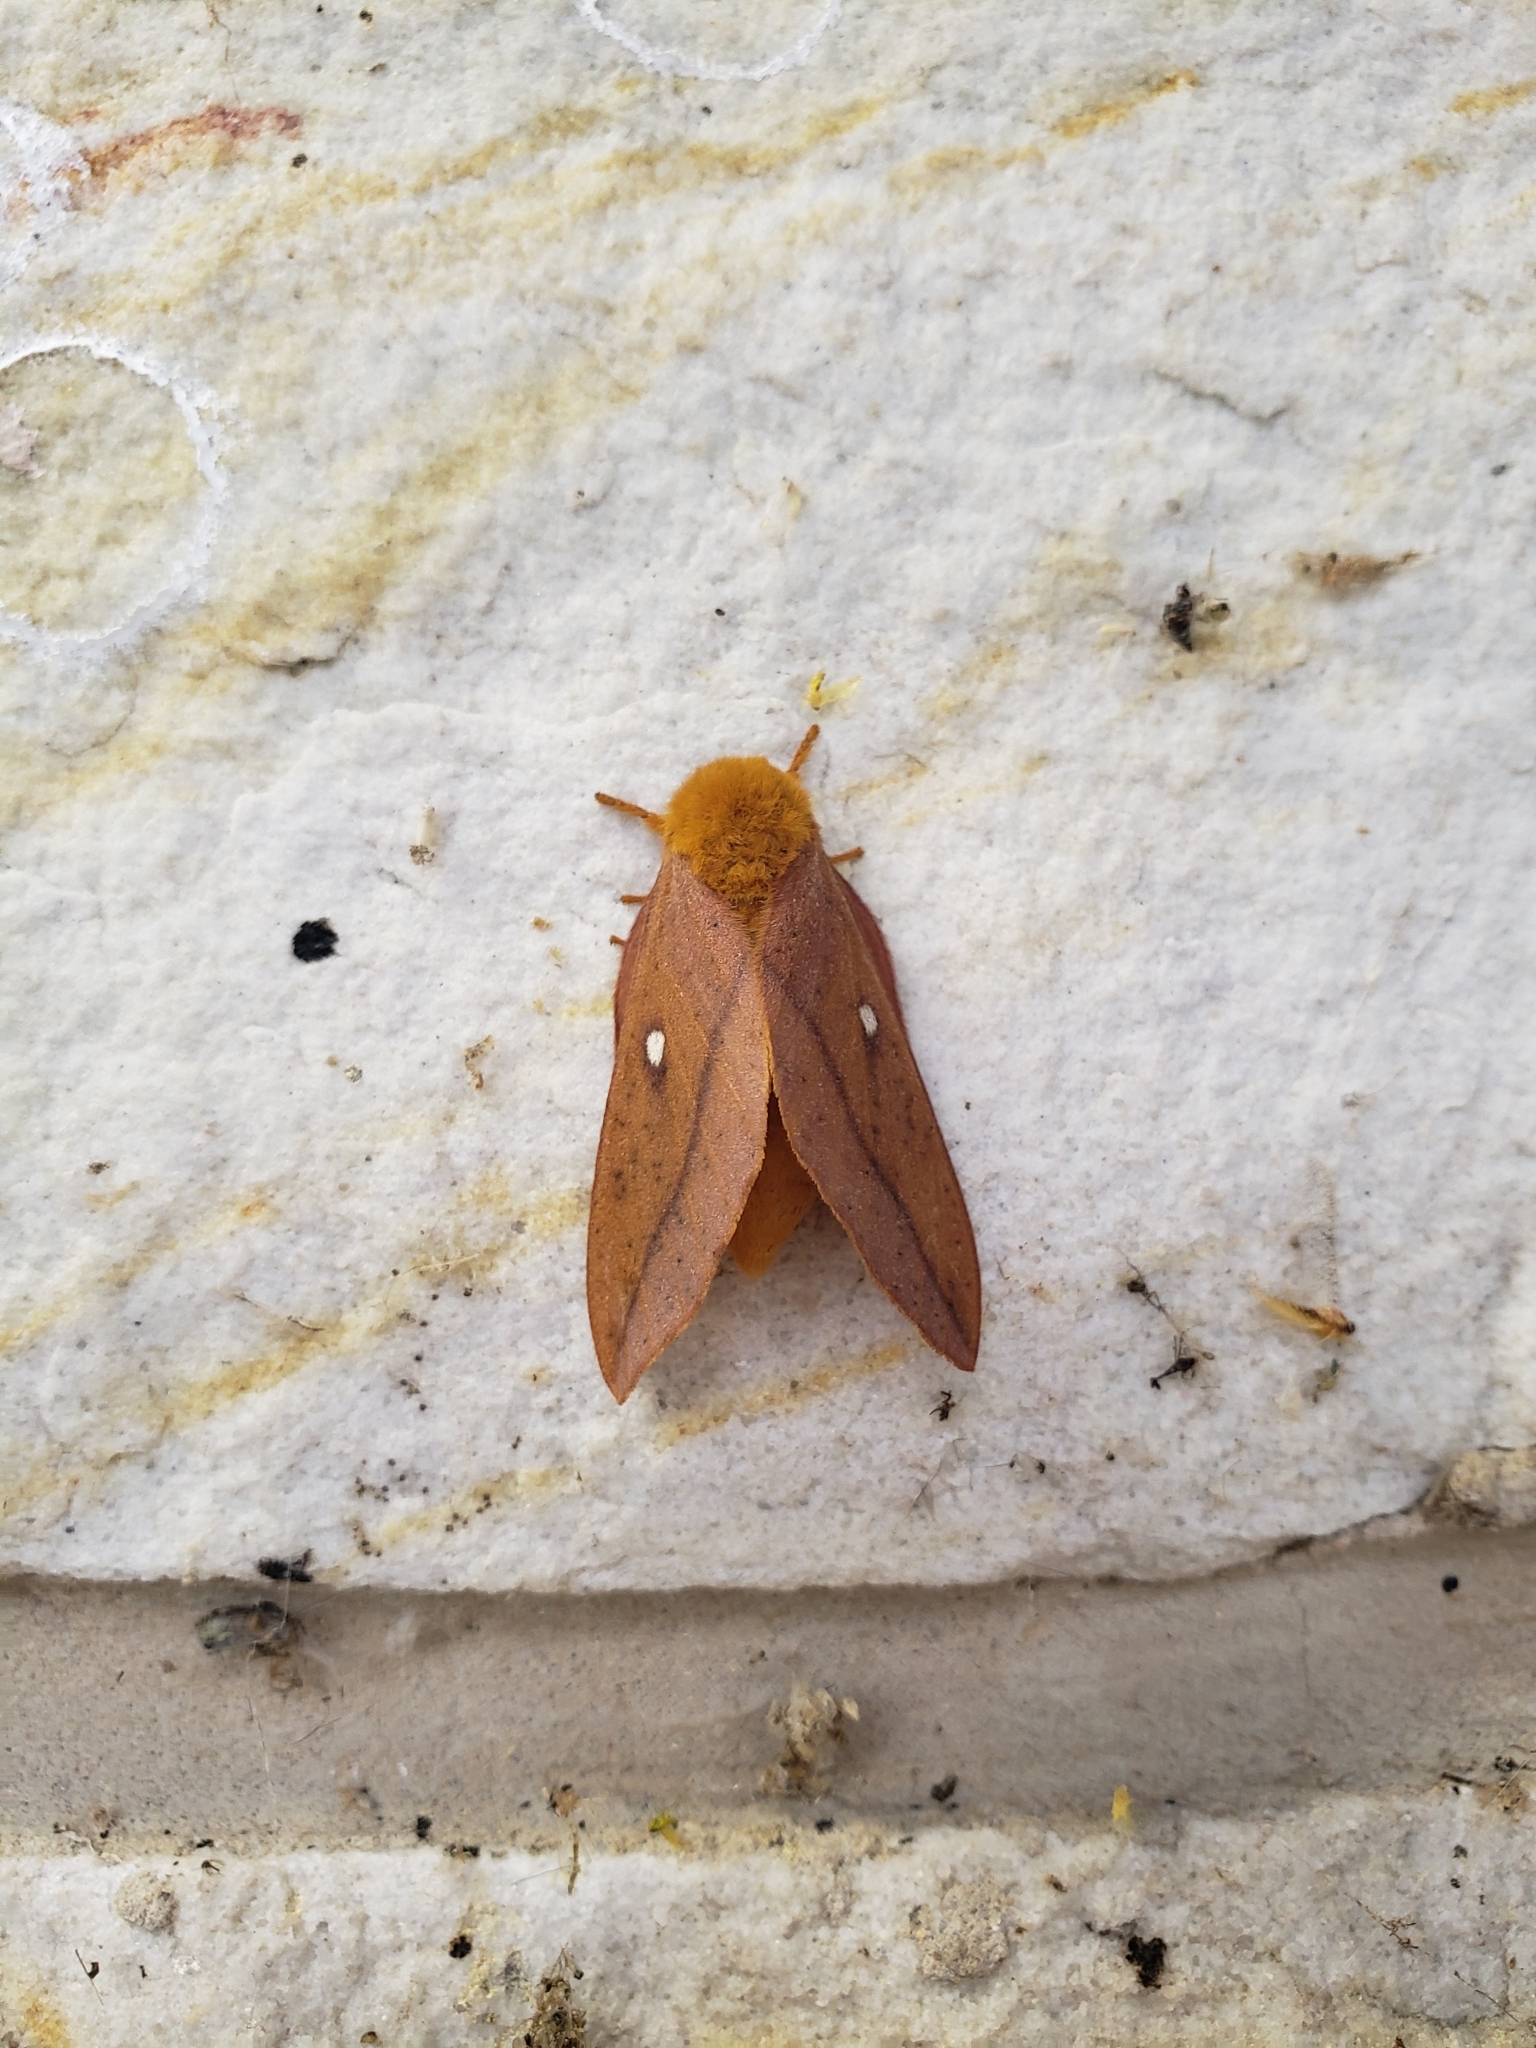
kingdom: Animalia
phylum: Arthropoda
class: Insecta
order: Lepidoptera
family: Saturniidae
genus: Anisota
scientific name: Anisota senatoria
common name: Orange-striped oakworm moth
